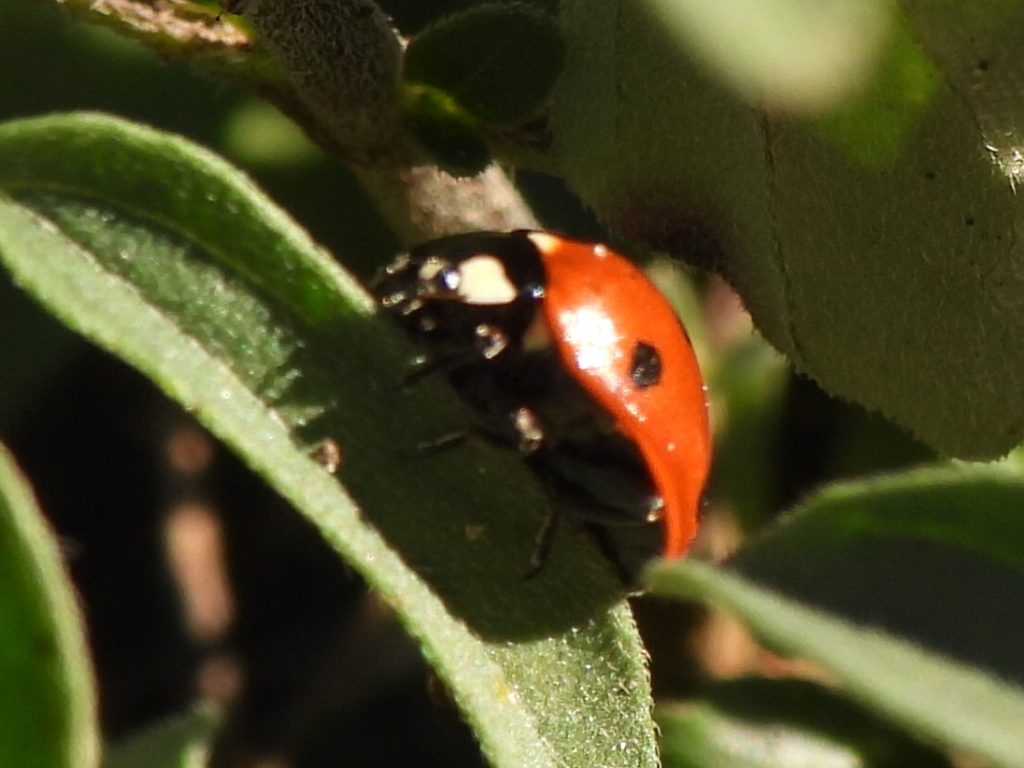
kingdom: Animalia
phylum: Arthropoda
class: Insecta
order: Coleoptera
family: Coccinellidae
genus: Coccinella
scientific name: Coccinella septempunctata
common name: Sevenspotted lady beetle
